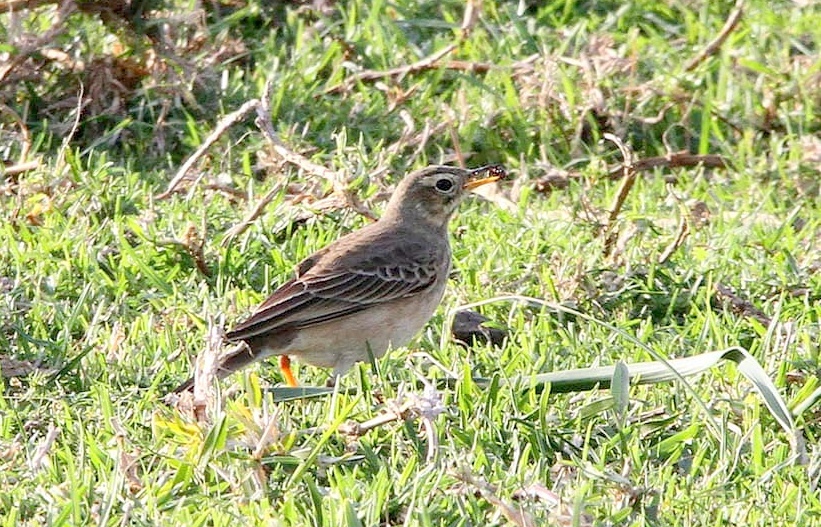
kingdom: Animalia
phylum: Chordata
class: Aves
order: Passeriformes
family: Motacillidae
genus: Anthus
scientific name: Anthus leucophrys
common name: Plain-backed pipit
